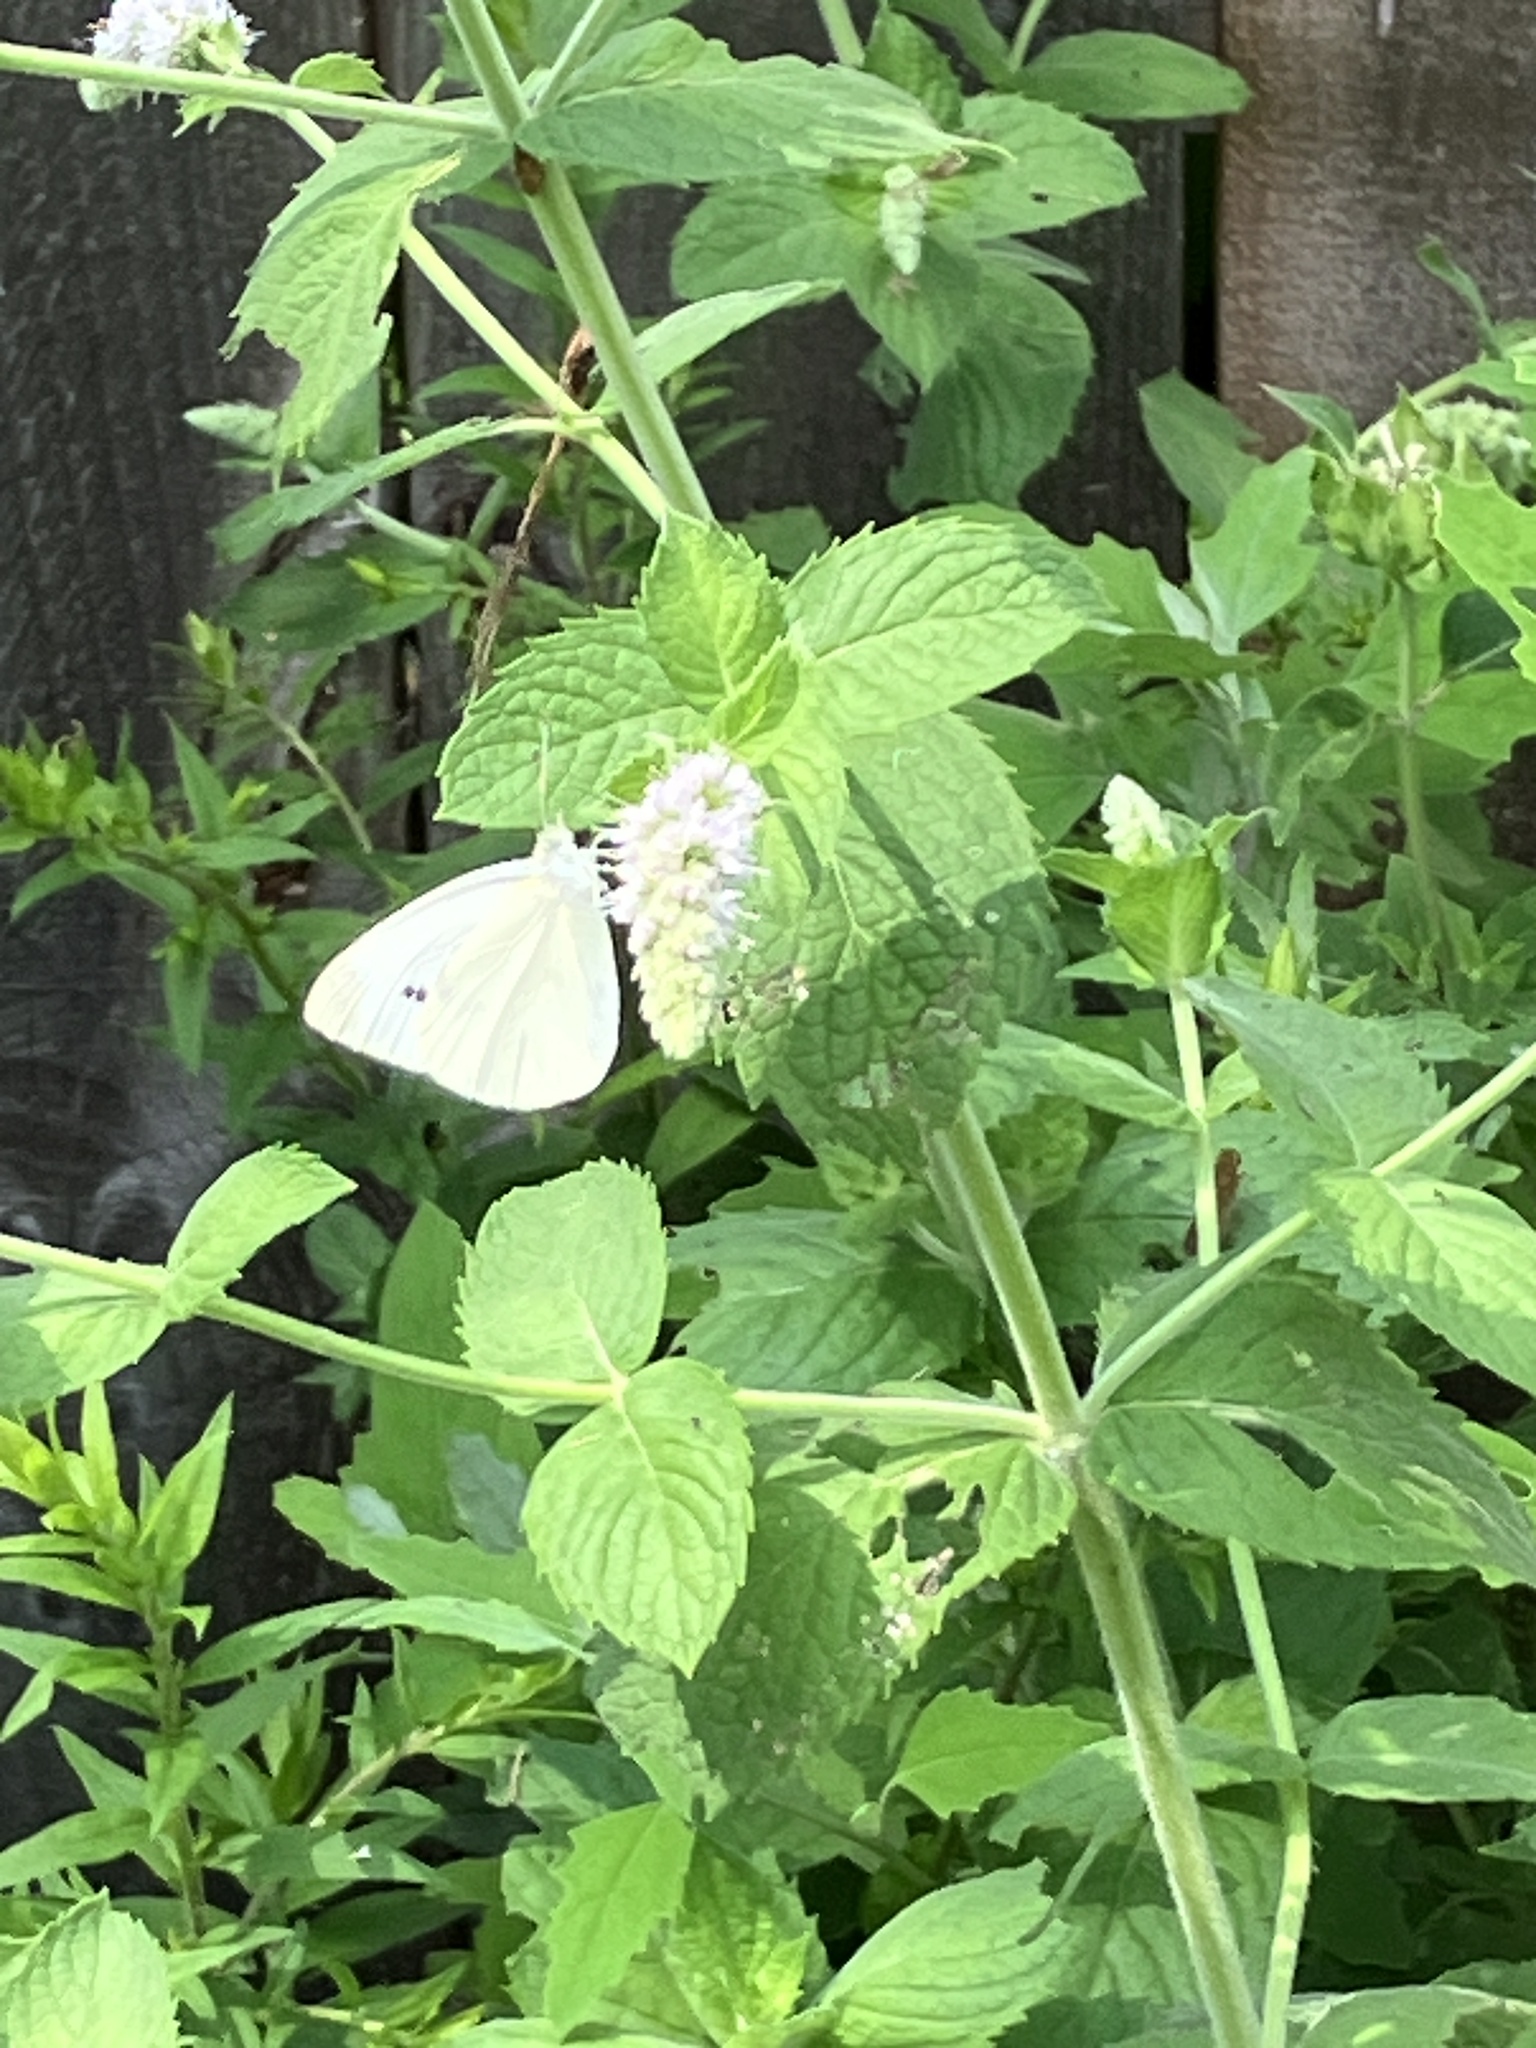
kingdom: Animalia
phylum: Arthropoda
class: Insecta
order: Lepidoptera
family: Pieridae
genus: Pieris
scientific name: Pieris rapae
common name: Small white
